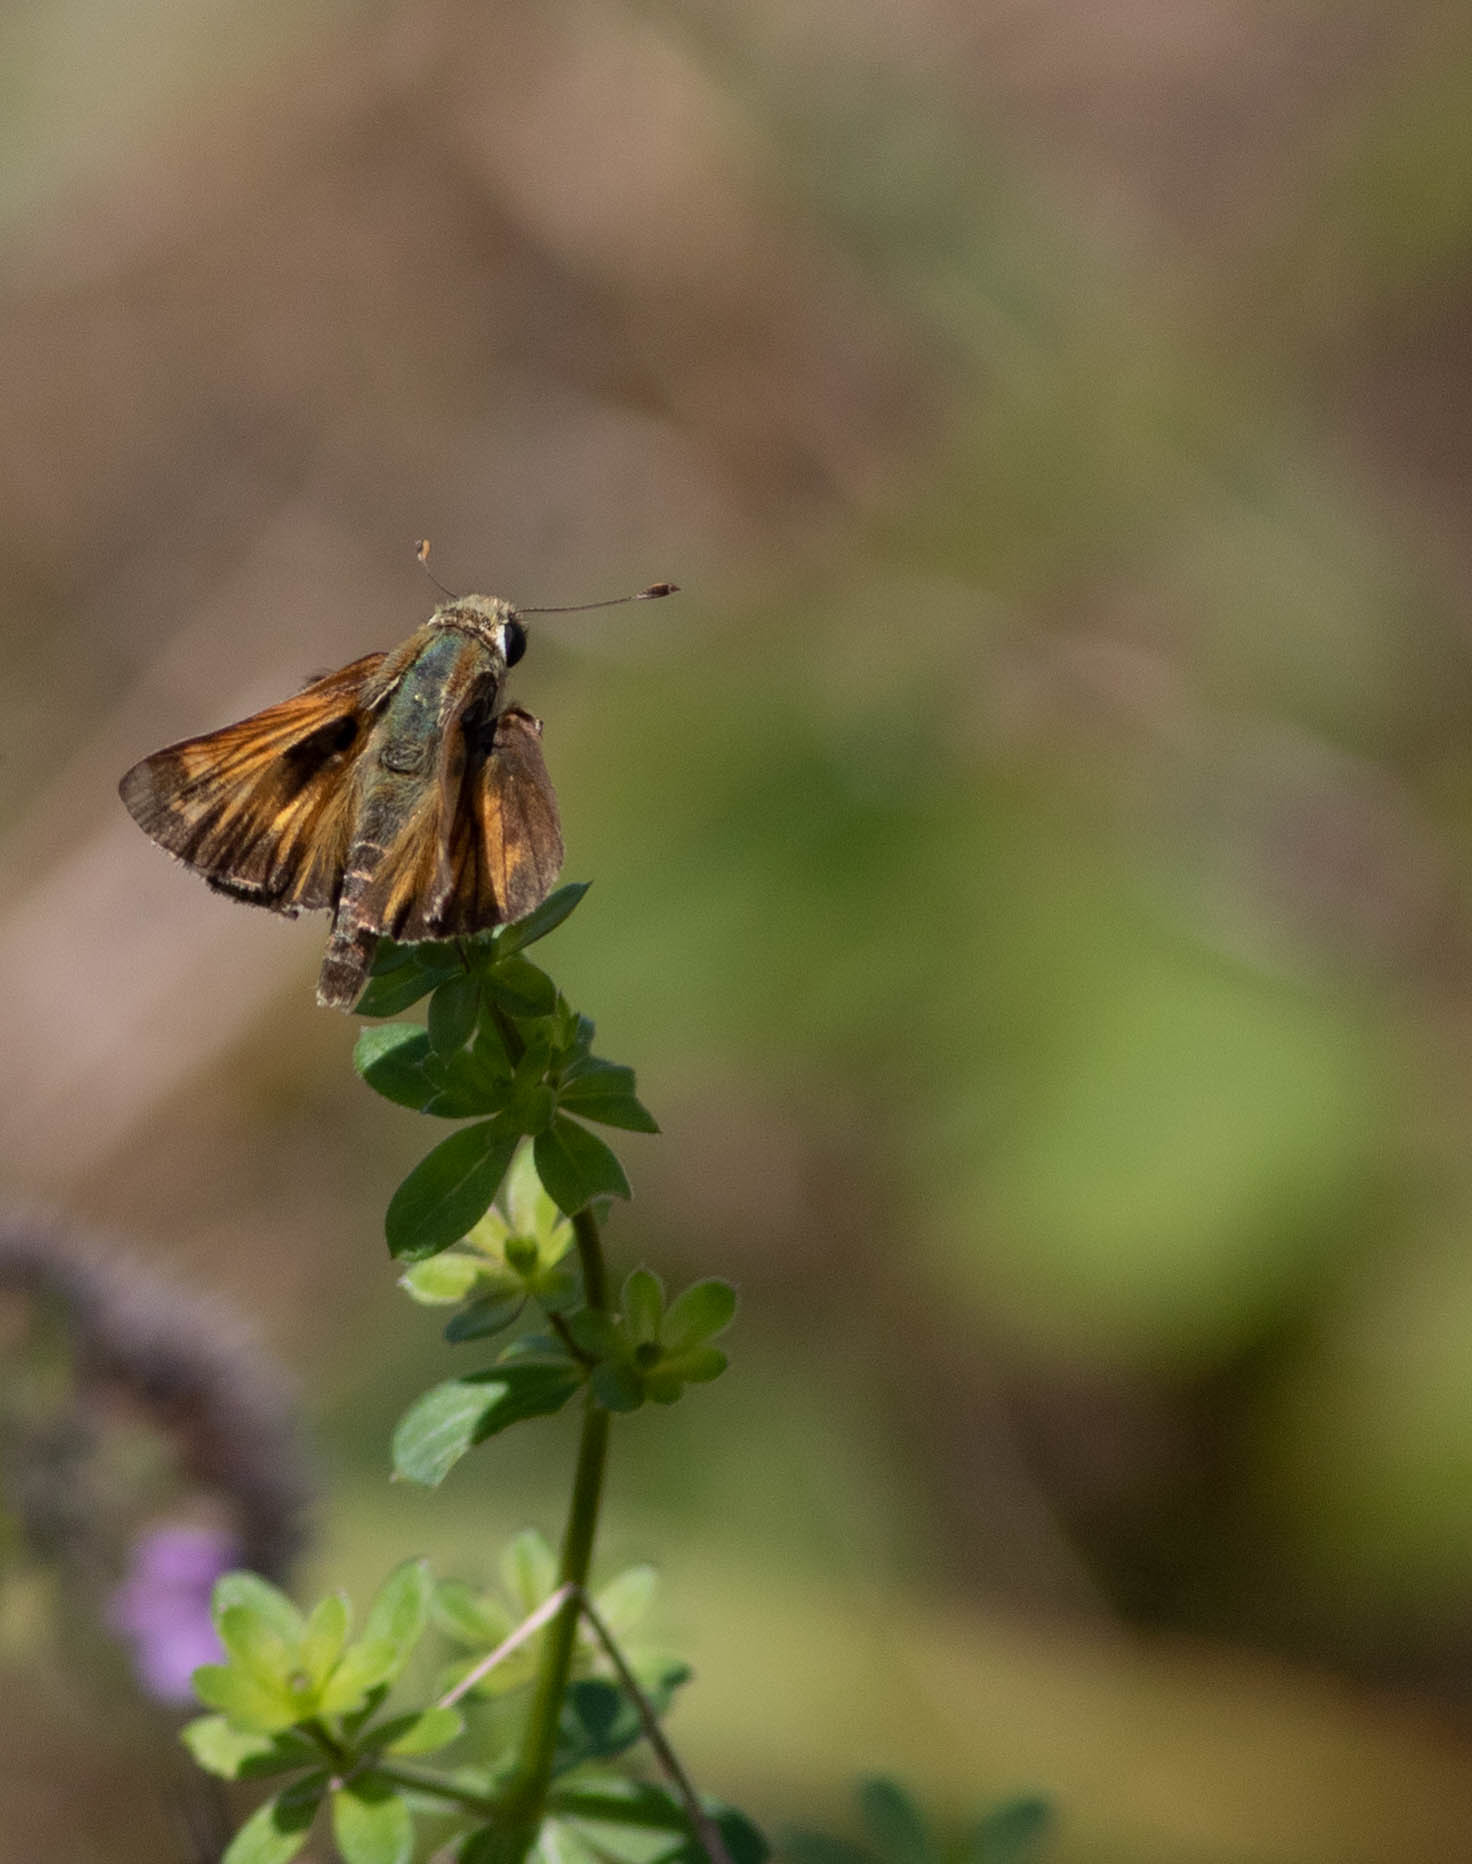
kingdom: Animalia
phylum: Arthropoda
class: Insecta
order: Lepidoptera
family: Hesperiidae
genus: Atalopedes
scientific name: Atalopedes
